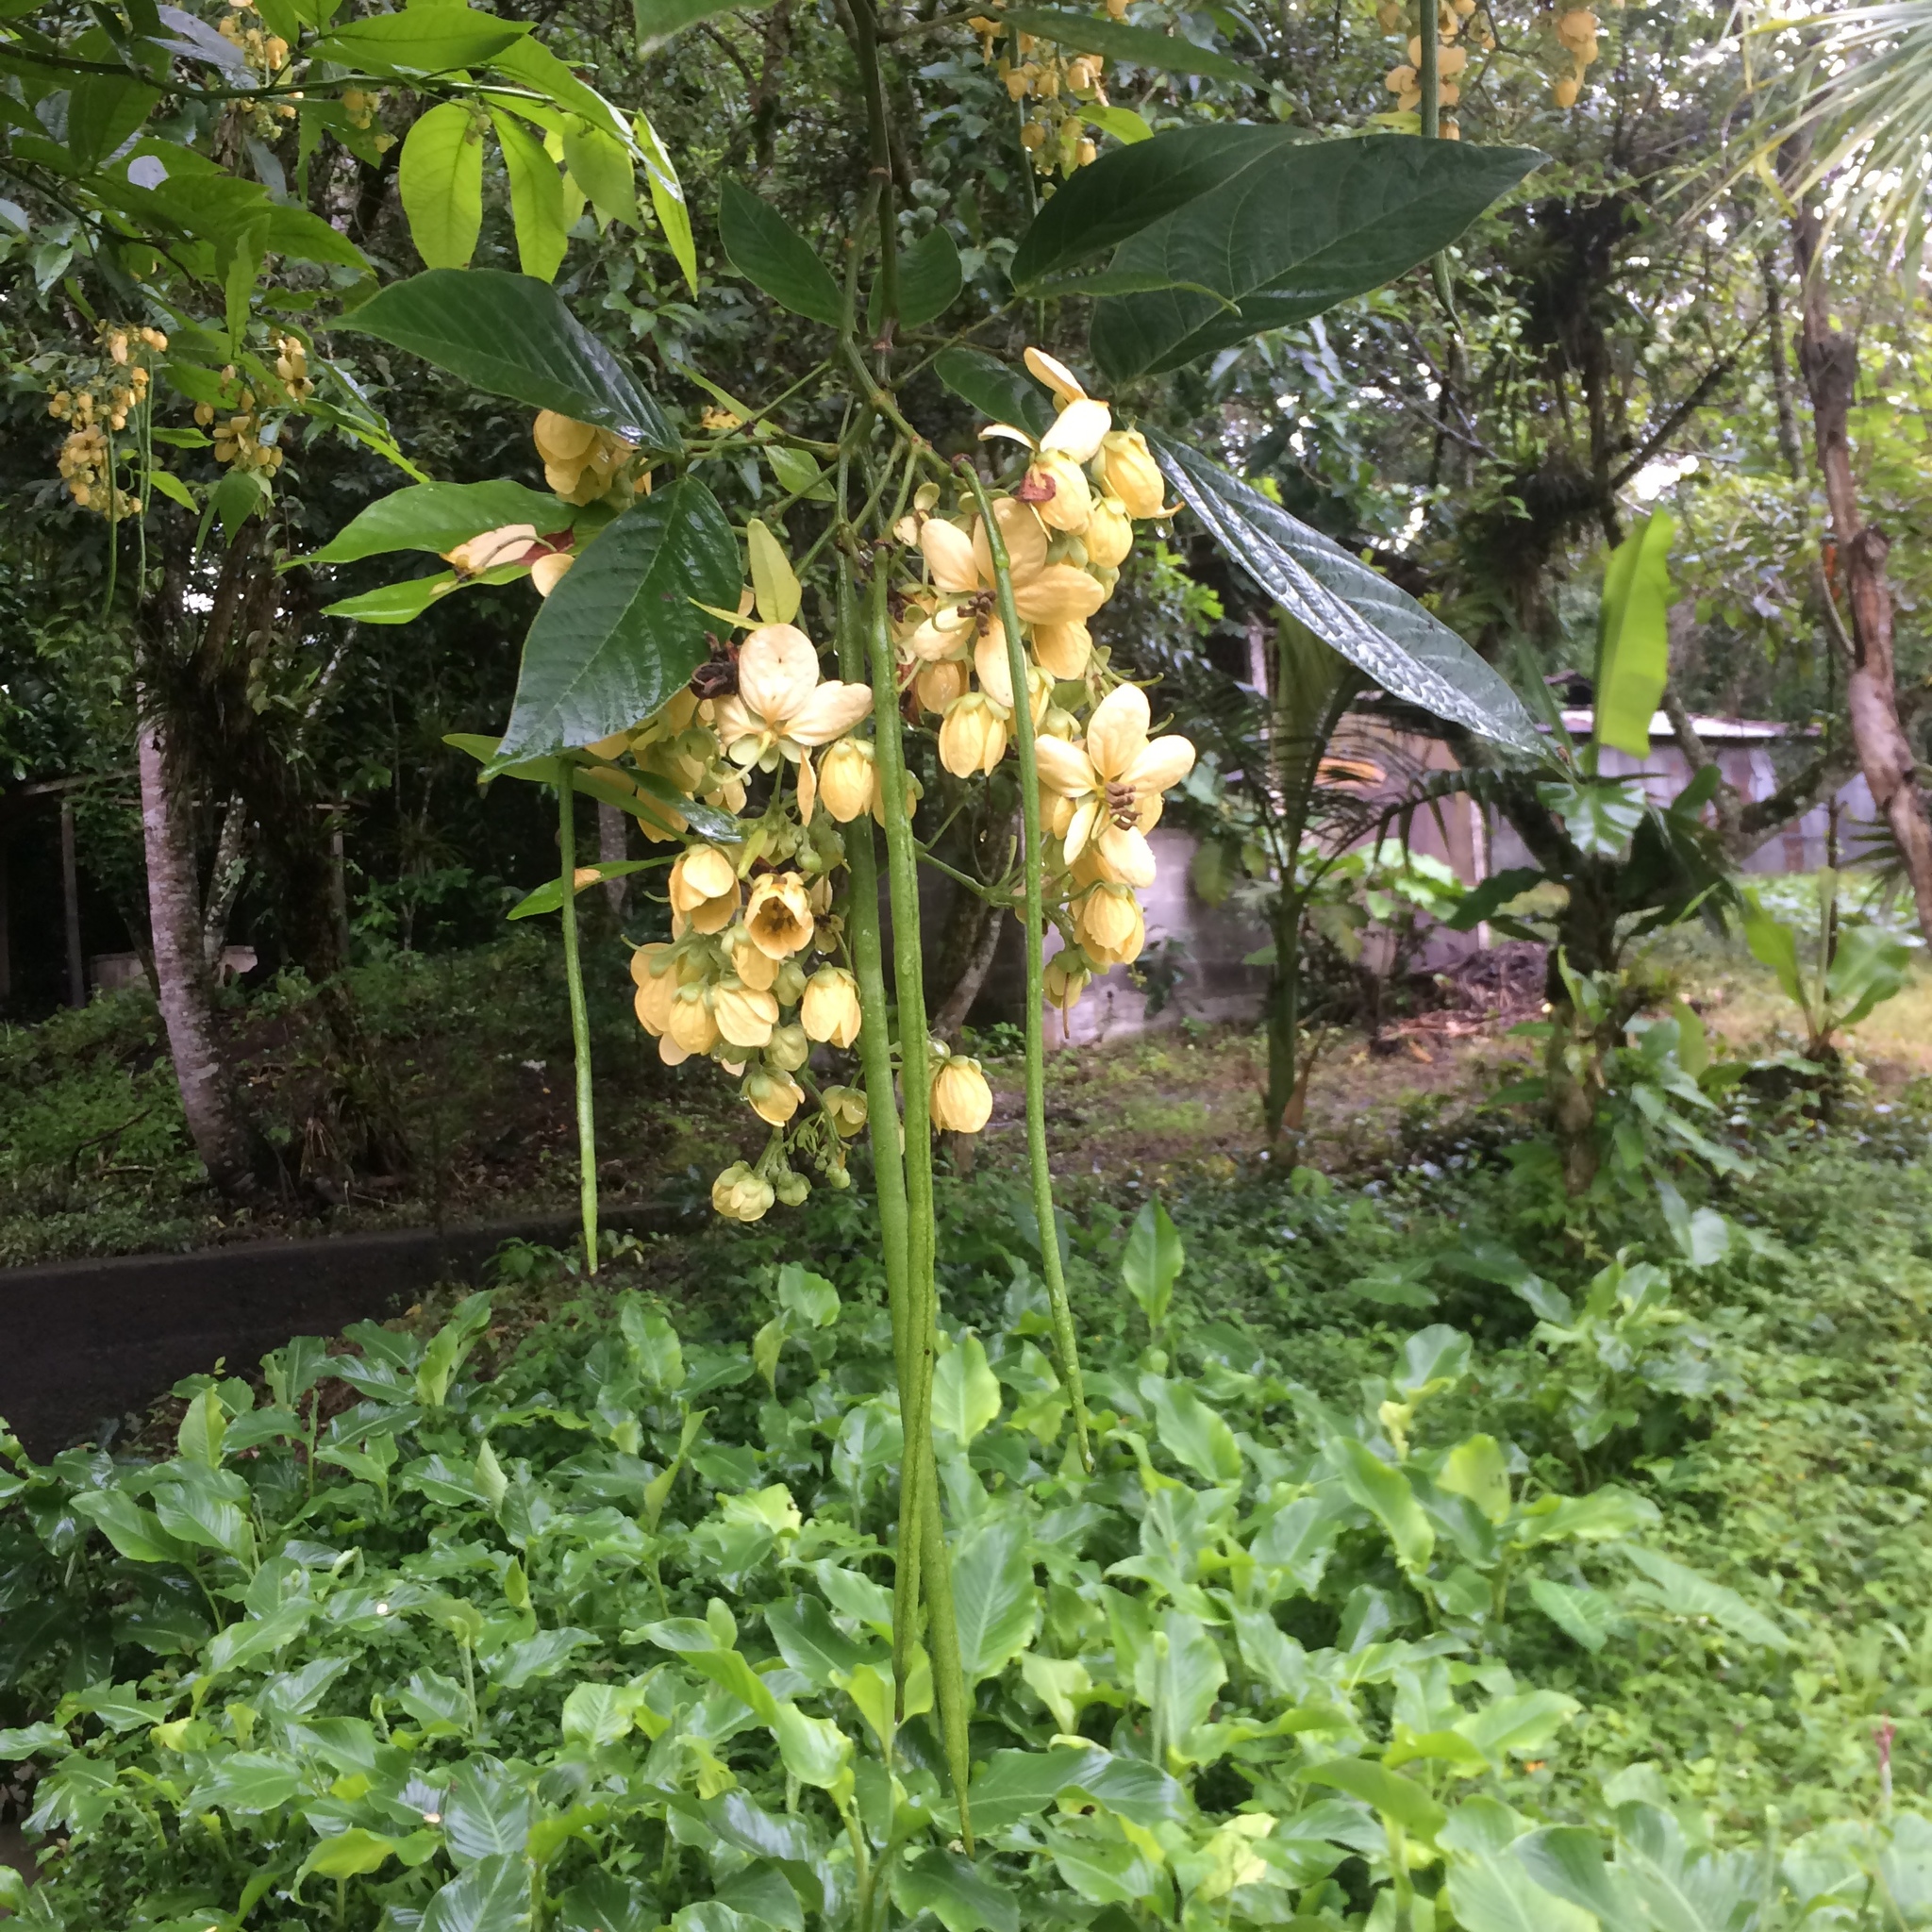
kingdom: Plantae
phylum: Tracheophyta
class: Magnoliopsida
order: Fabales
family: Fabaceae
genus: Senna
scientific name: Senna hayesiana
